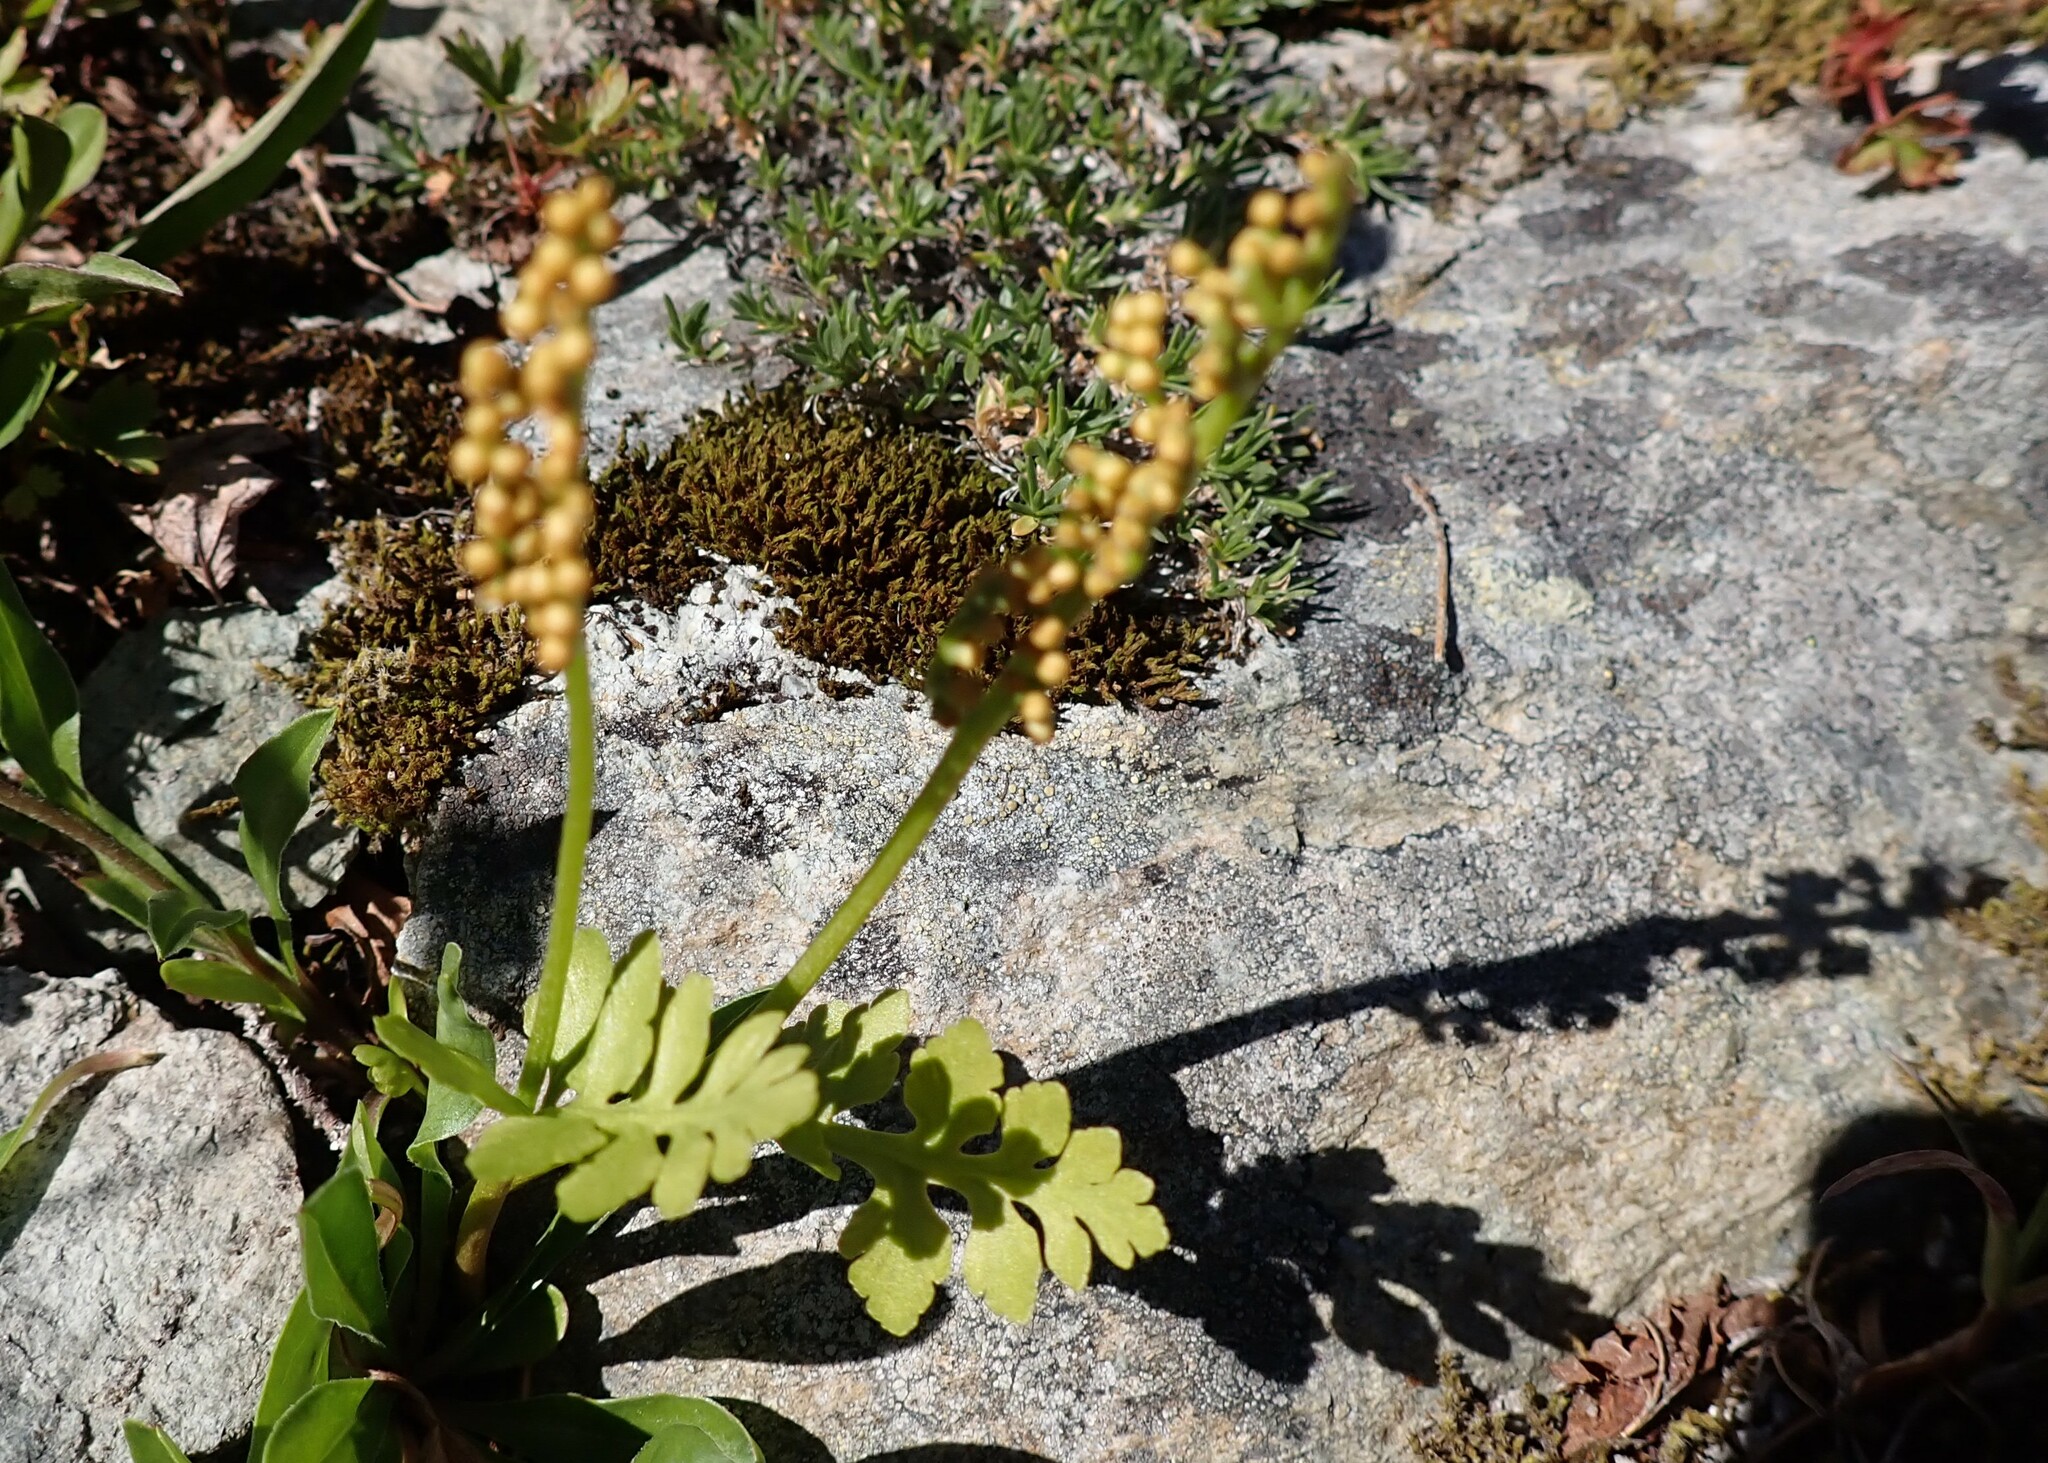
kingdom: Plantae
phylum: Tracheophyta
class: Polypodiopsida
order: Ophioglossales
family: Ophioglossaceae
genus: Botrychium
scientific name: Botrychium pinnatum
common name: Northwestern moonwort
